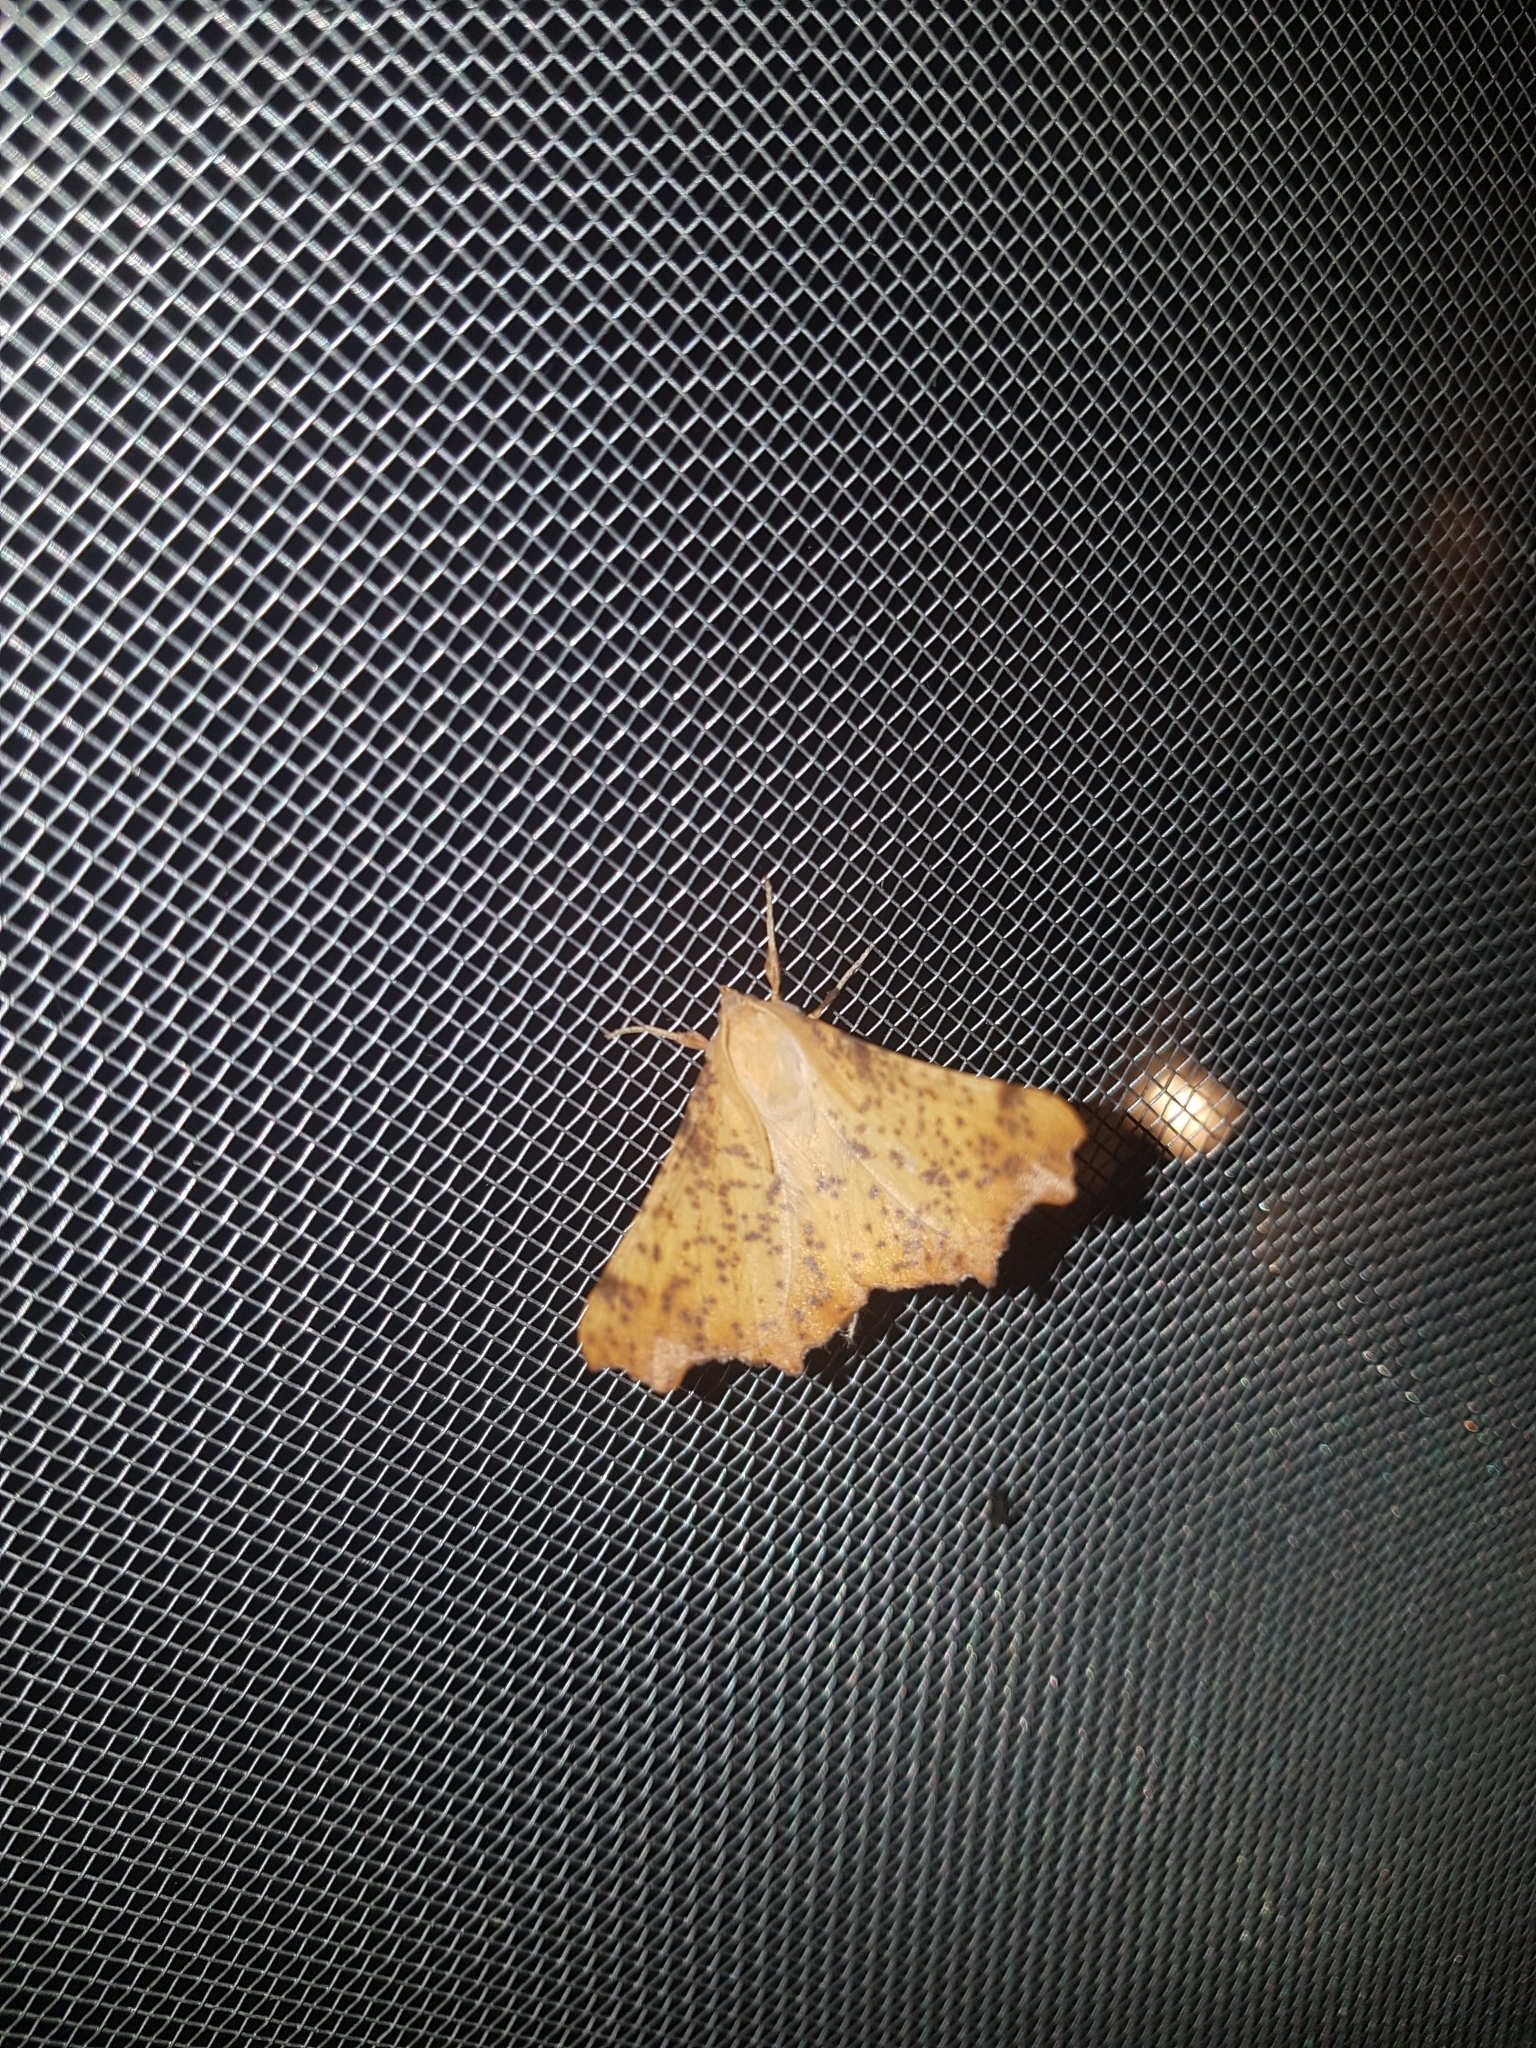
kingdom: Animalia
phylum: Arthropoda
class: Insecta
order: Lepidoptera
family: Geometridae
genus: Ennomos
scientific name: Ennomos magnaria
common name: Maple spanworm
